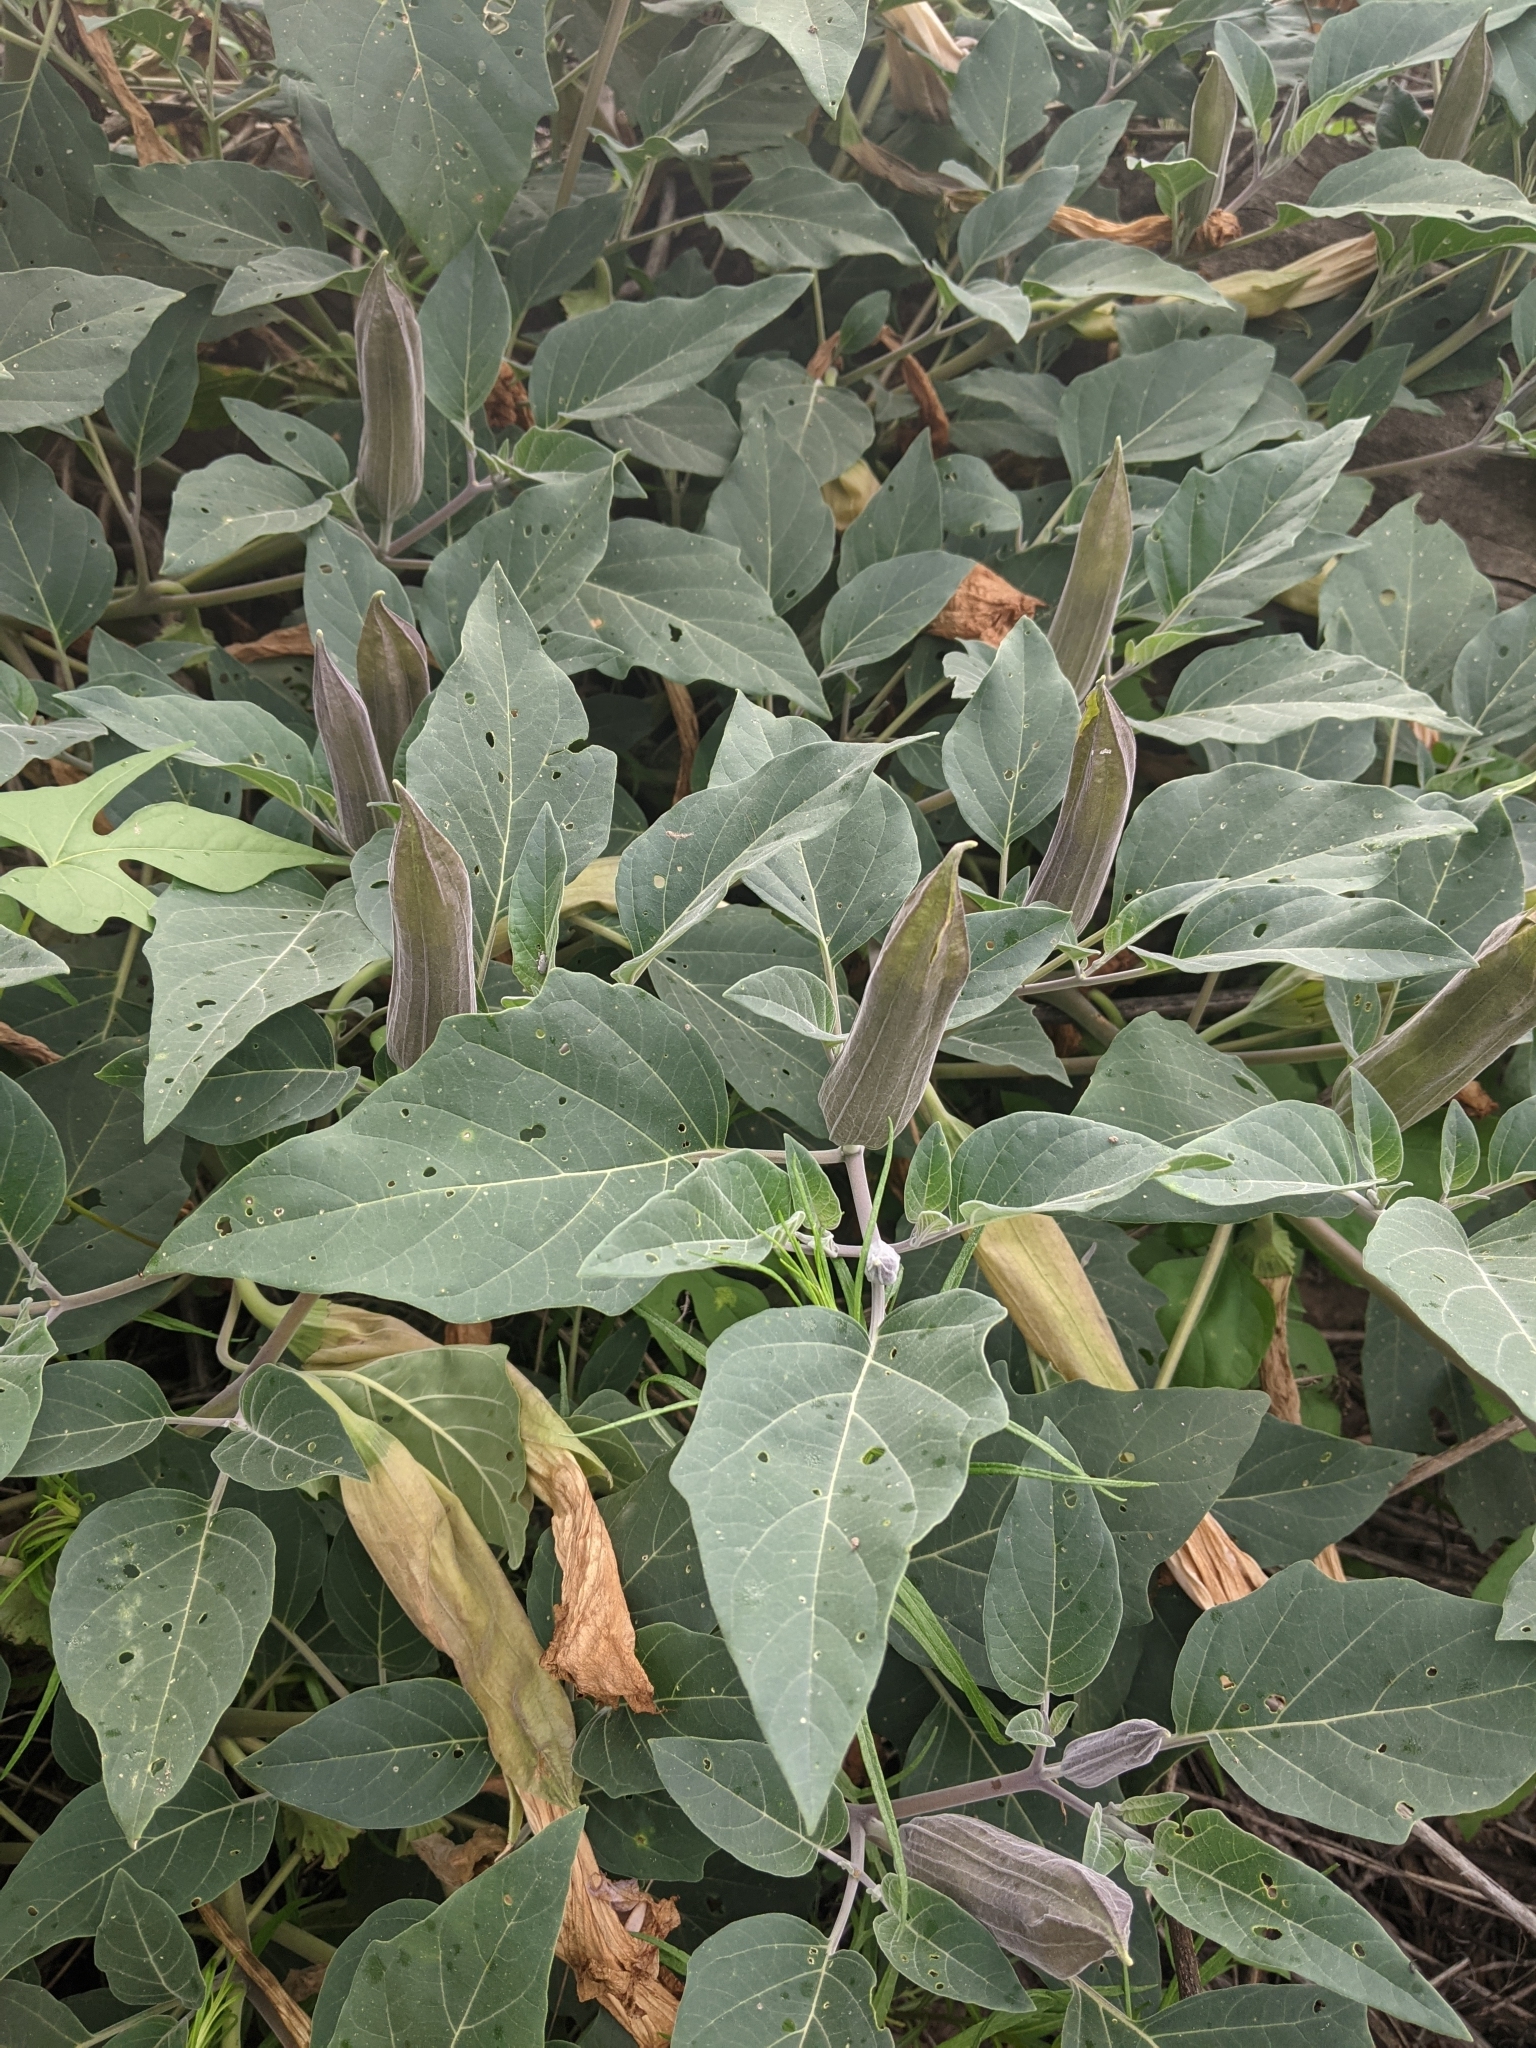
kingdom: Plantae
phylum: Tracheophyta
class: Magnoliopsida
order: Solanales
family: Solanaceae
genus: Datura
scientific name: Datura wrightii
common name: Sacred thorn-apple
